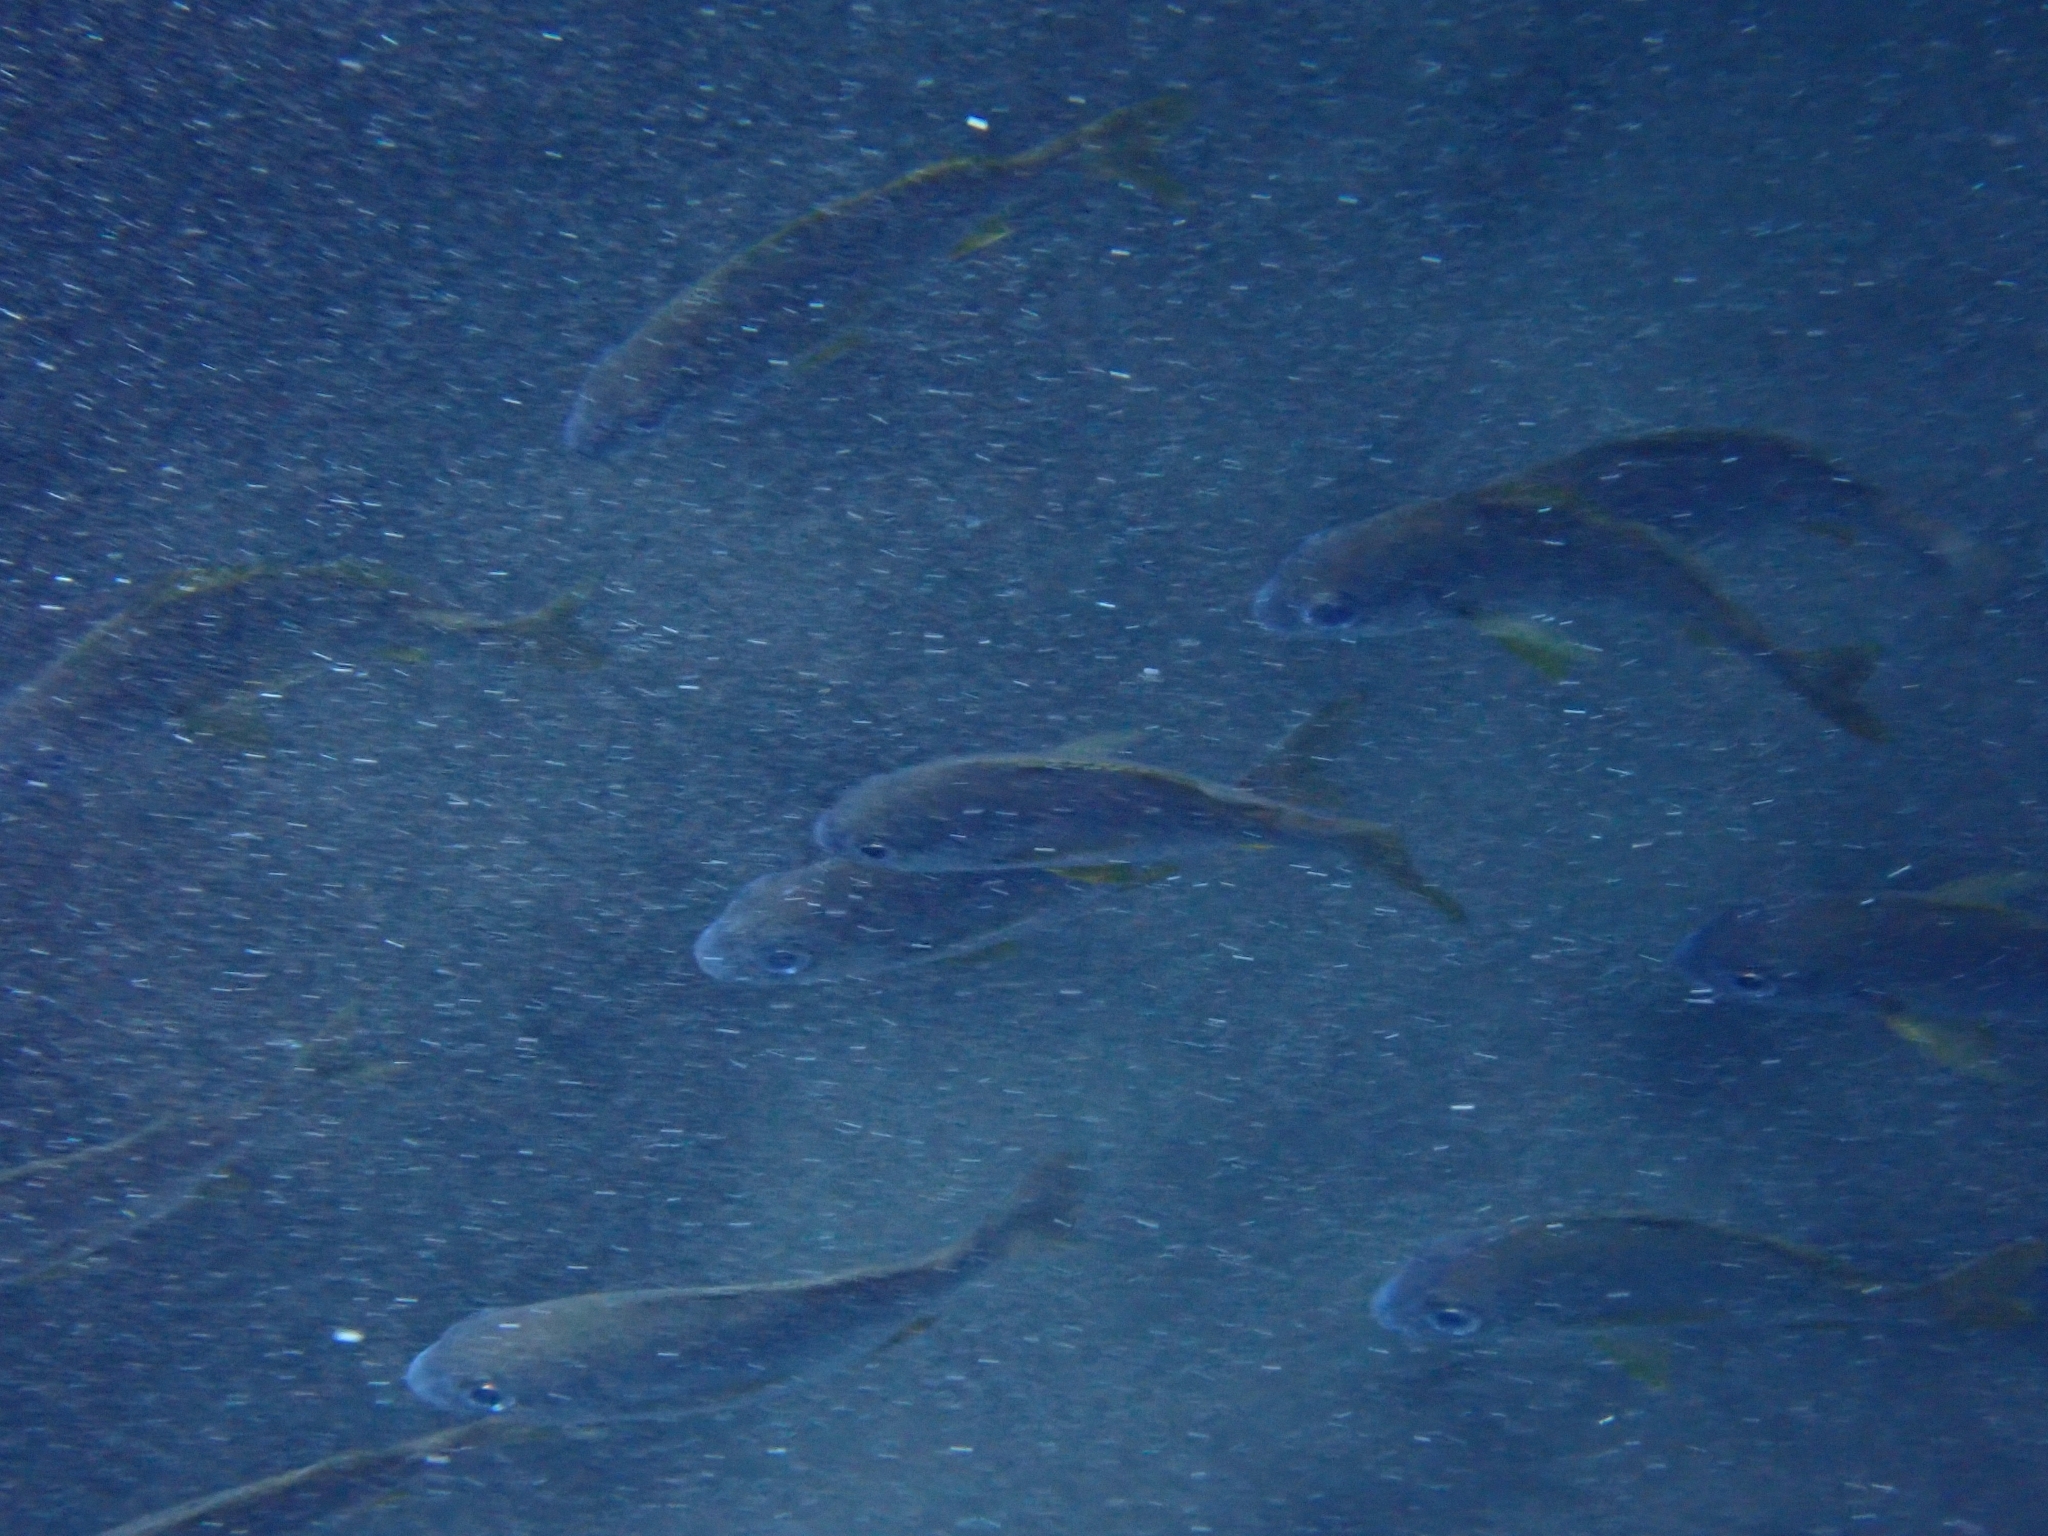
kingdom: Animalia
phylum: Chordata
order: Perciformes
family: Haemulidae
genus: Pomadasys
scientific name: Pomadasys incisus
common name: Bastard grunt
